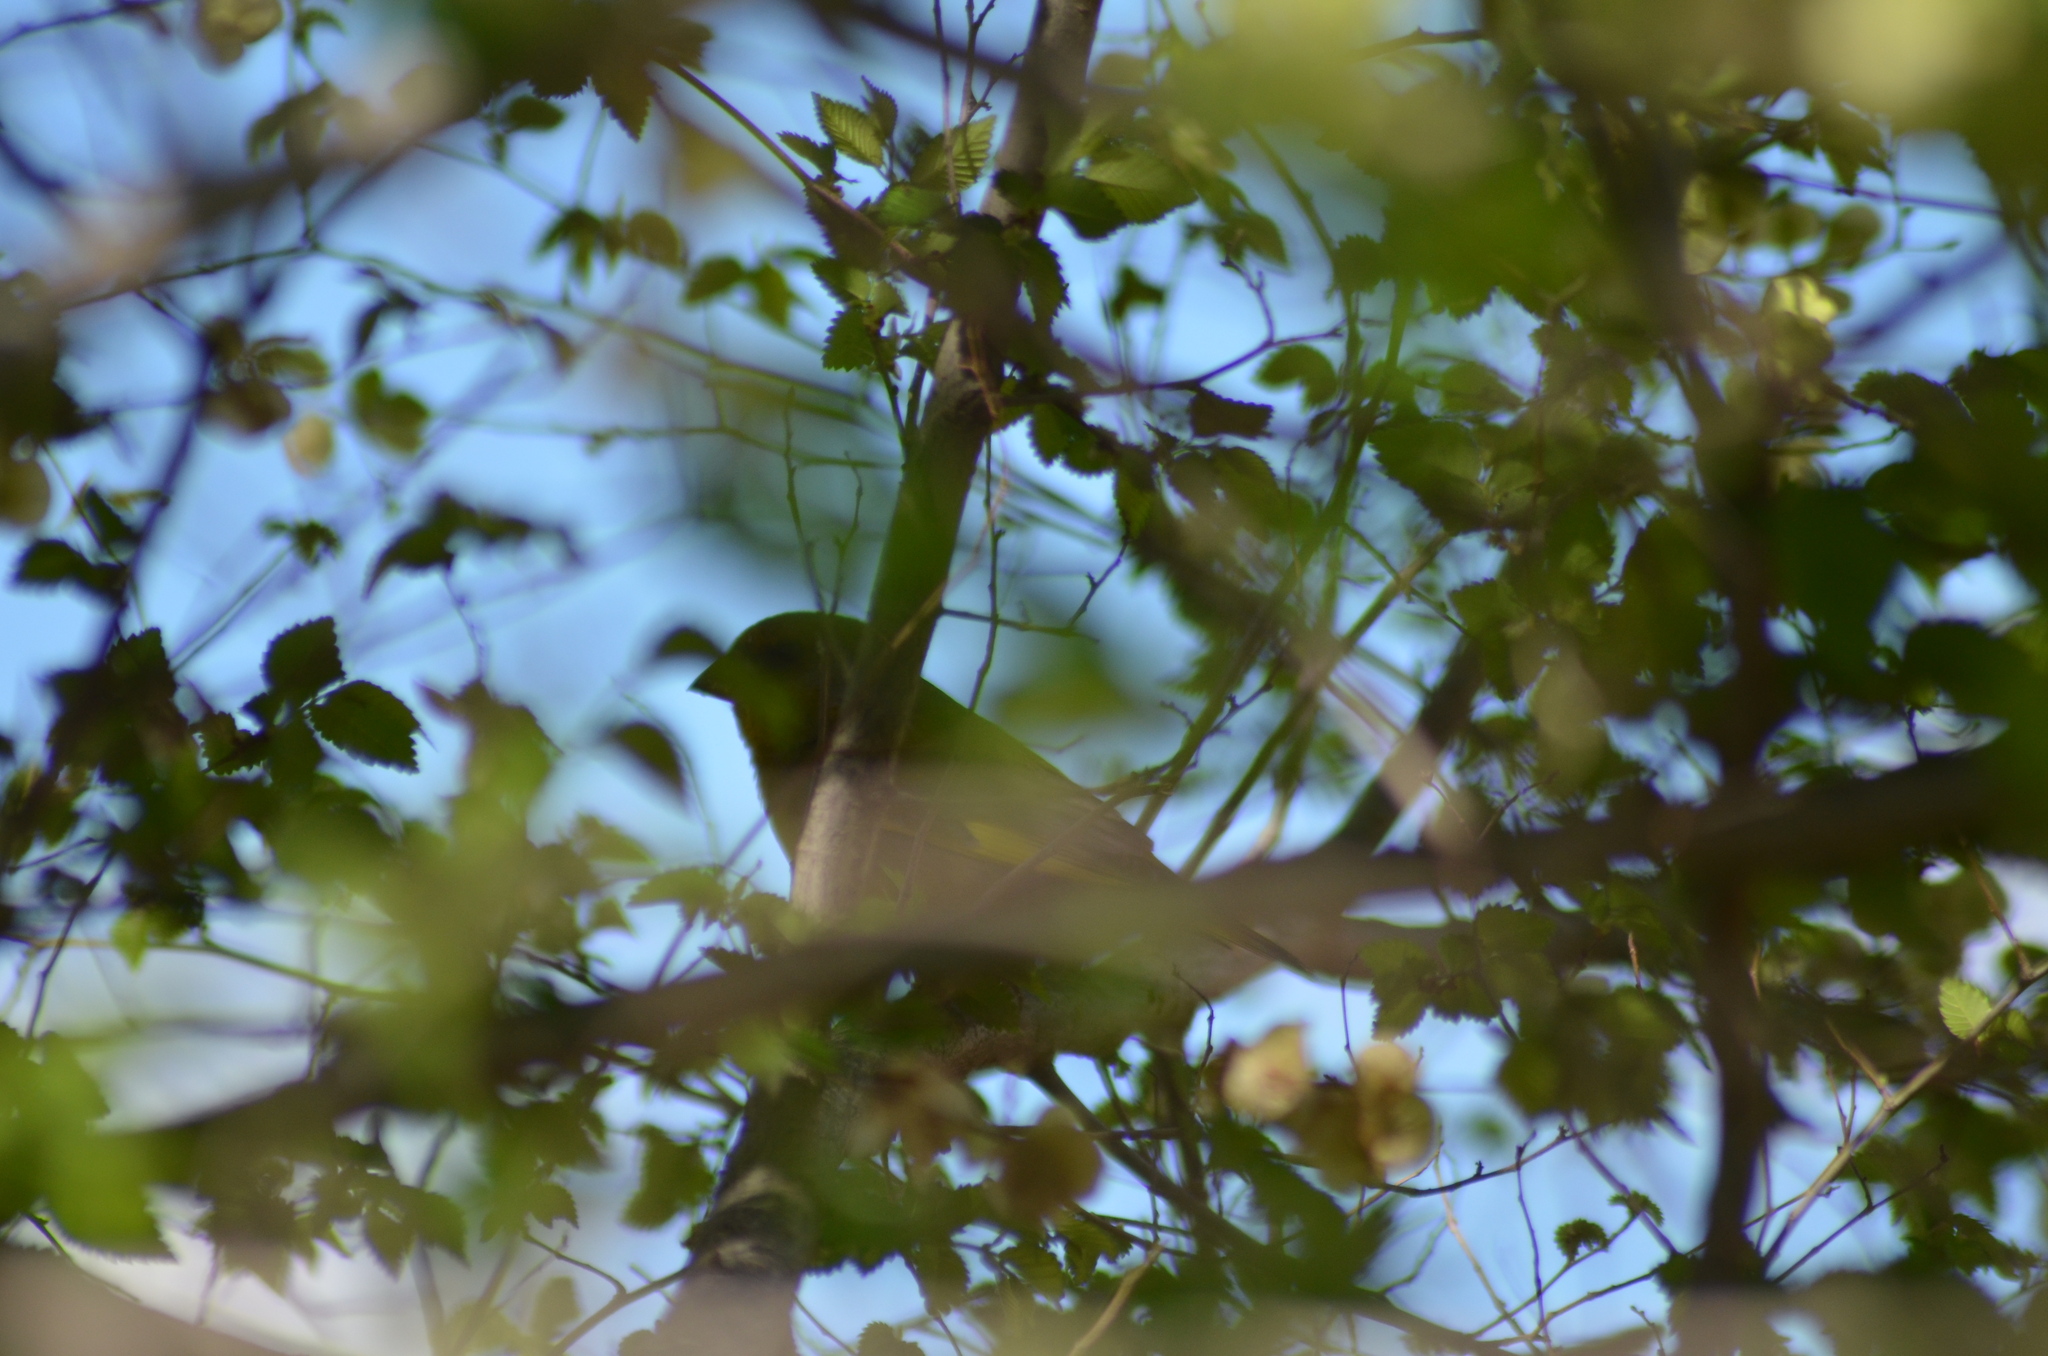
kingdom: Plantae
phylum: Tracheophyta
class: Liliopsida
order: Poales
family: Poaceae
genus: Chloris
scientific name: Chloris chloris
